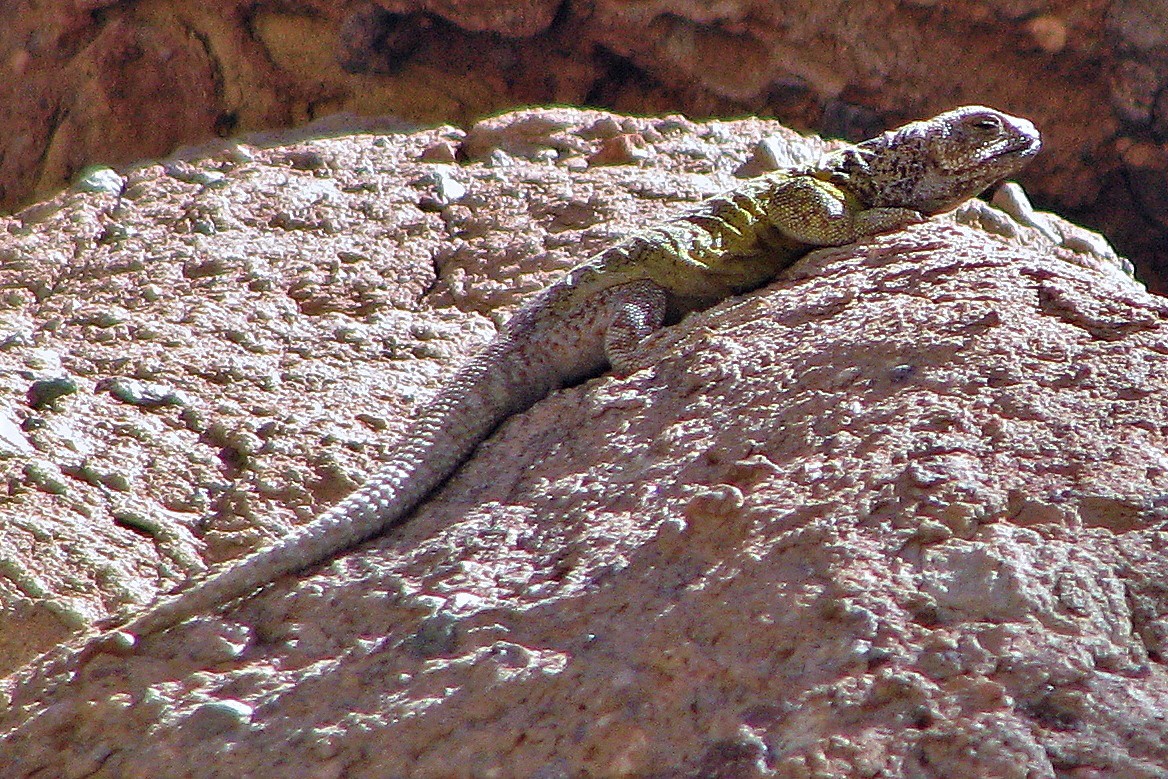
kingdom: Animalia
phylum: Chordata
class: Squamata
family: Liolaemidae
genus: Phymaturus
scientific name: Phymaturus antofagastensis
